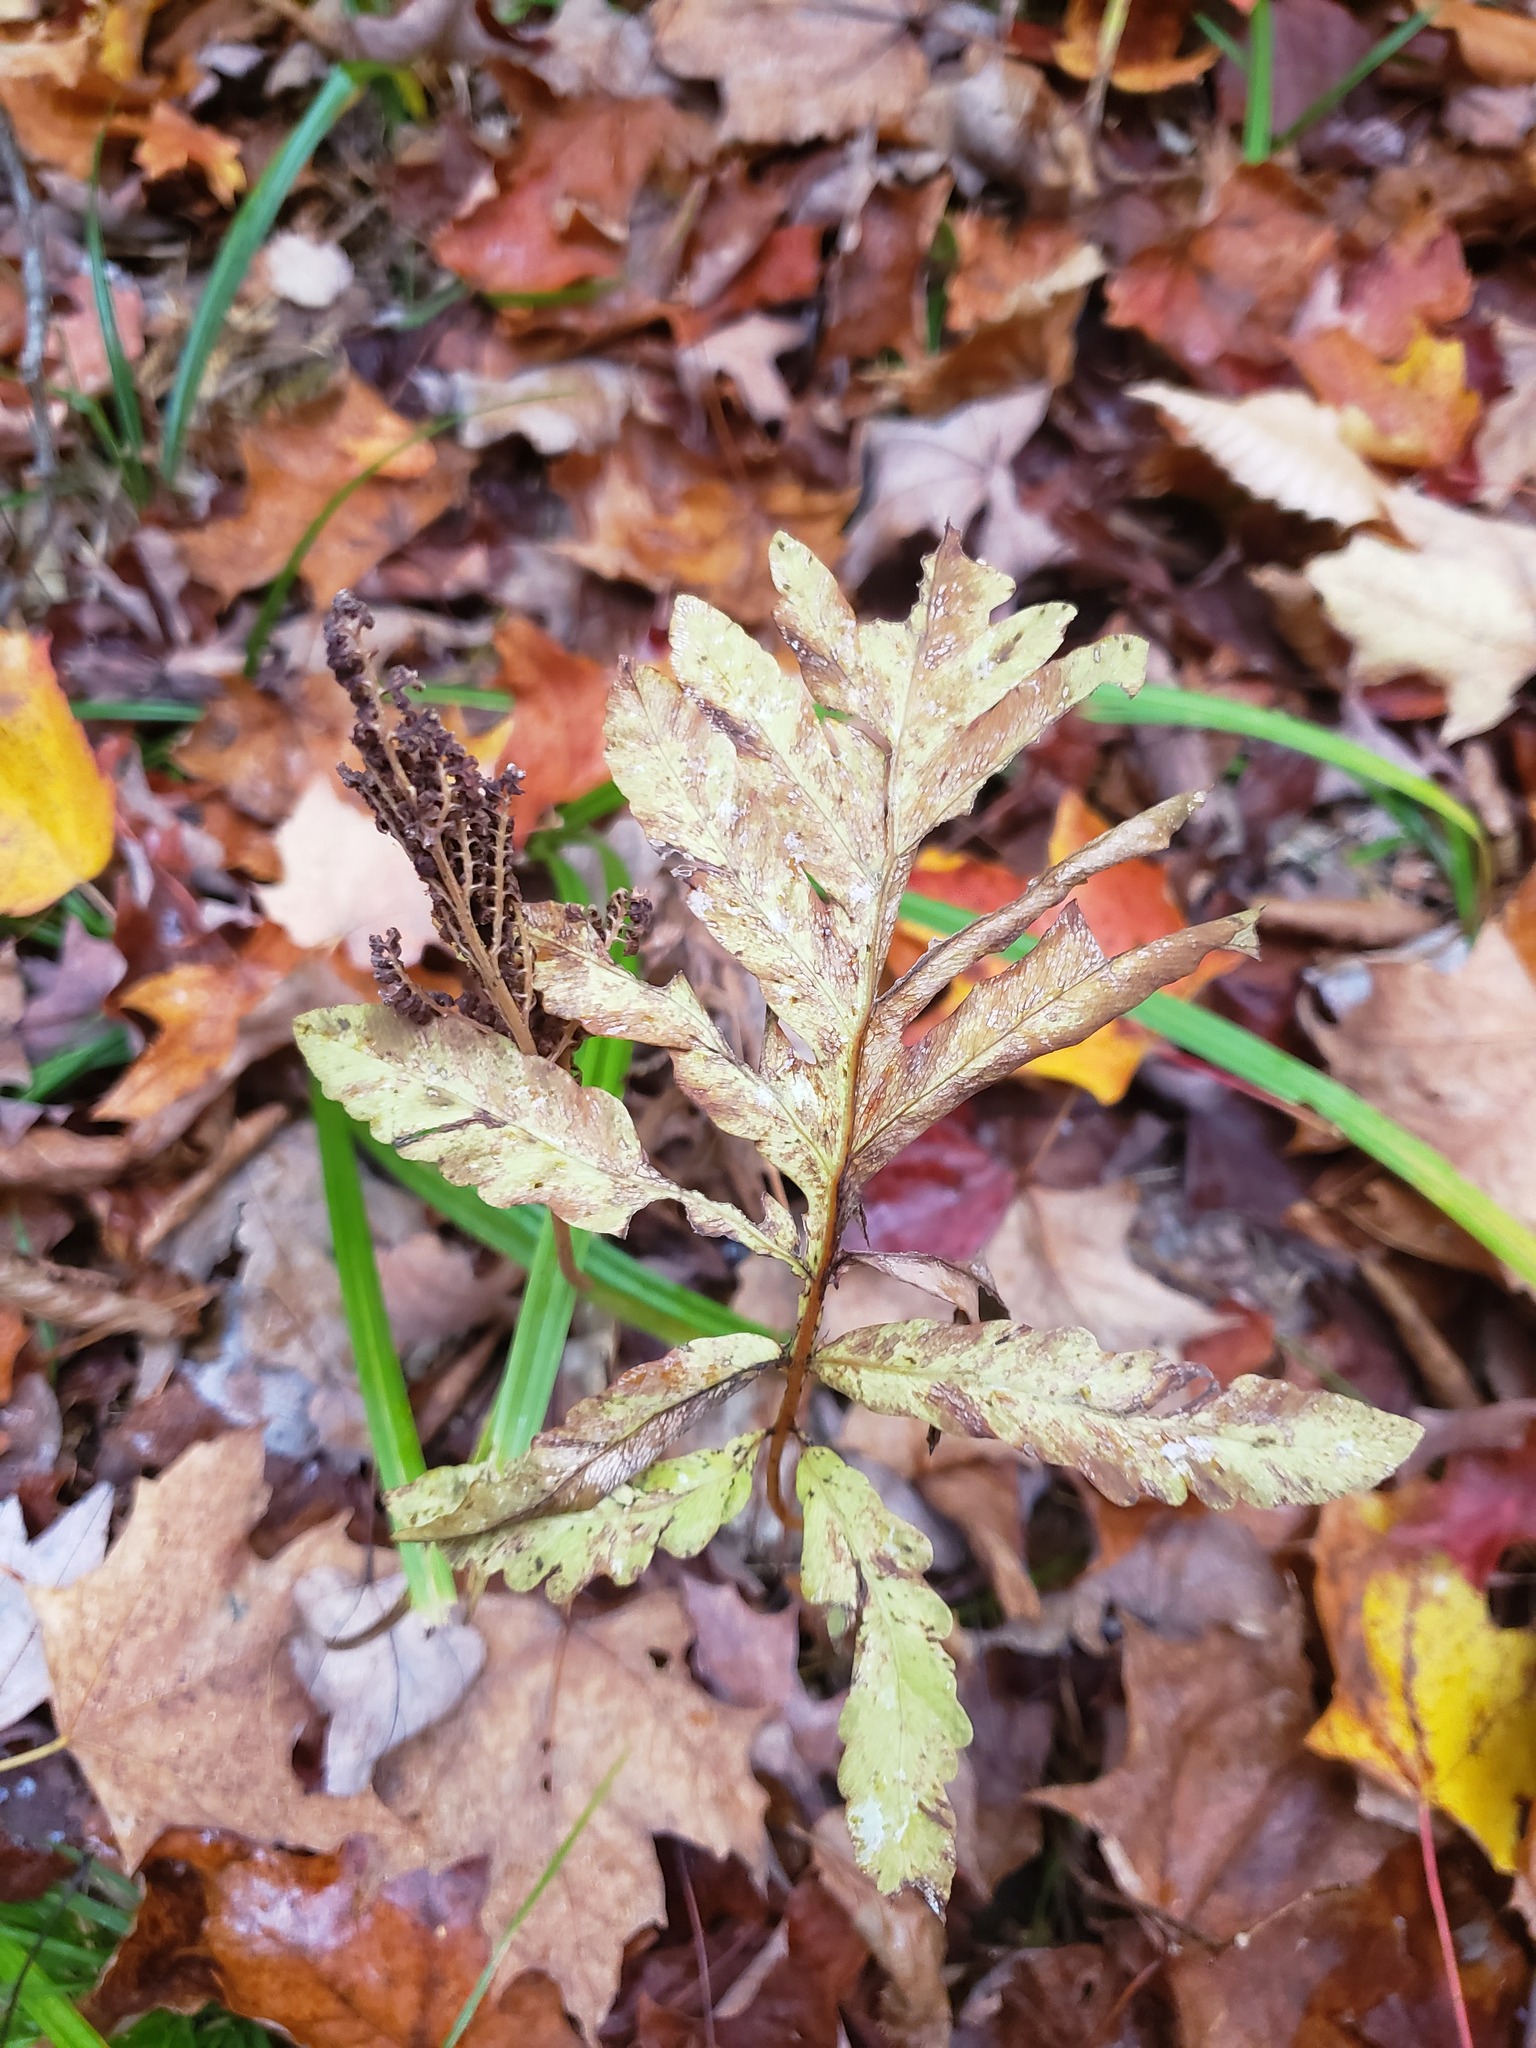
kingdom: Plantae
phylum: Tracheophyta
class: Polypodiopsida
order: Polypodiales
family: Onocleaceae
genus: Onoclea
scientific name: Onoclea sensibilis
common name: Sensitive fern
